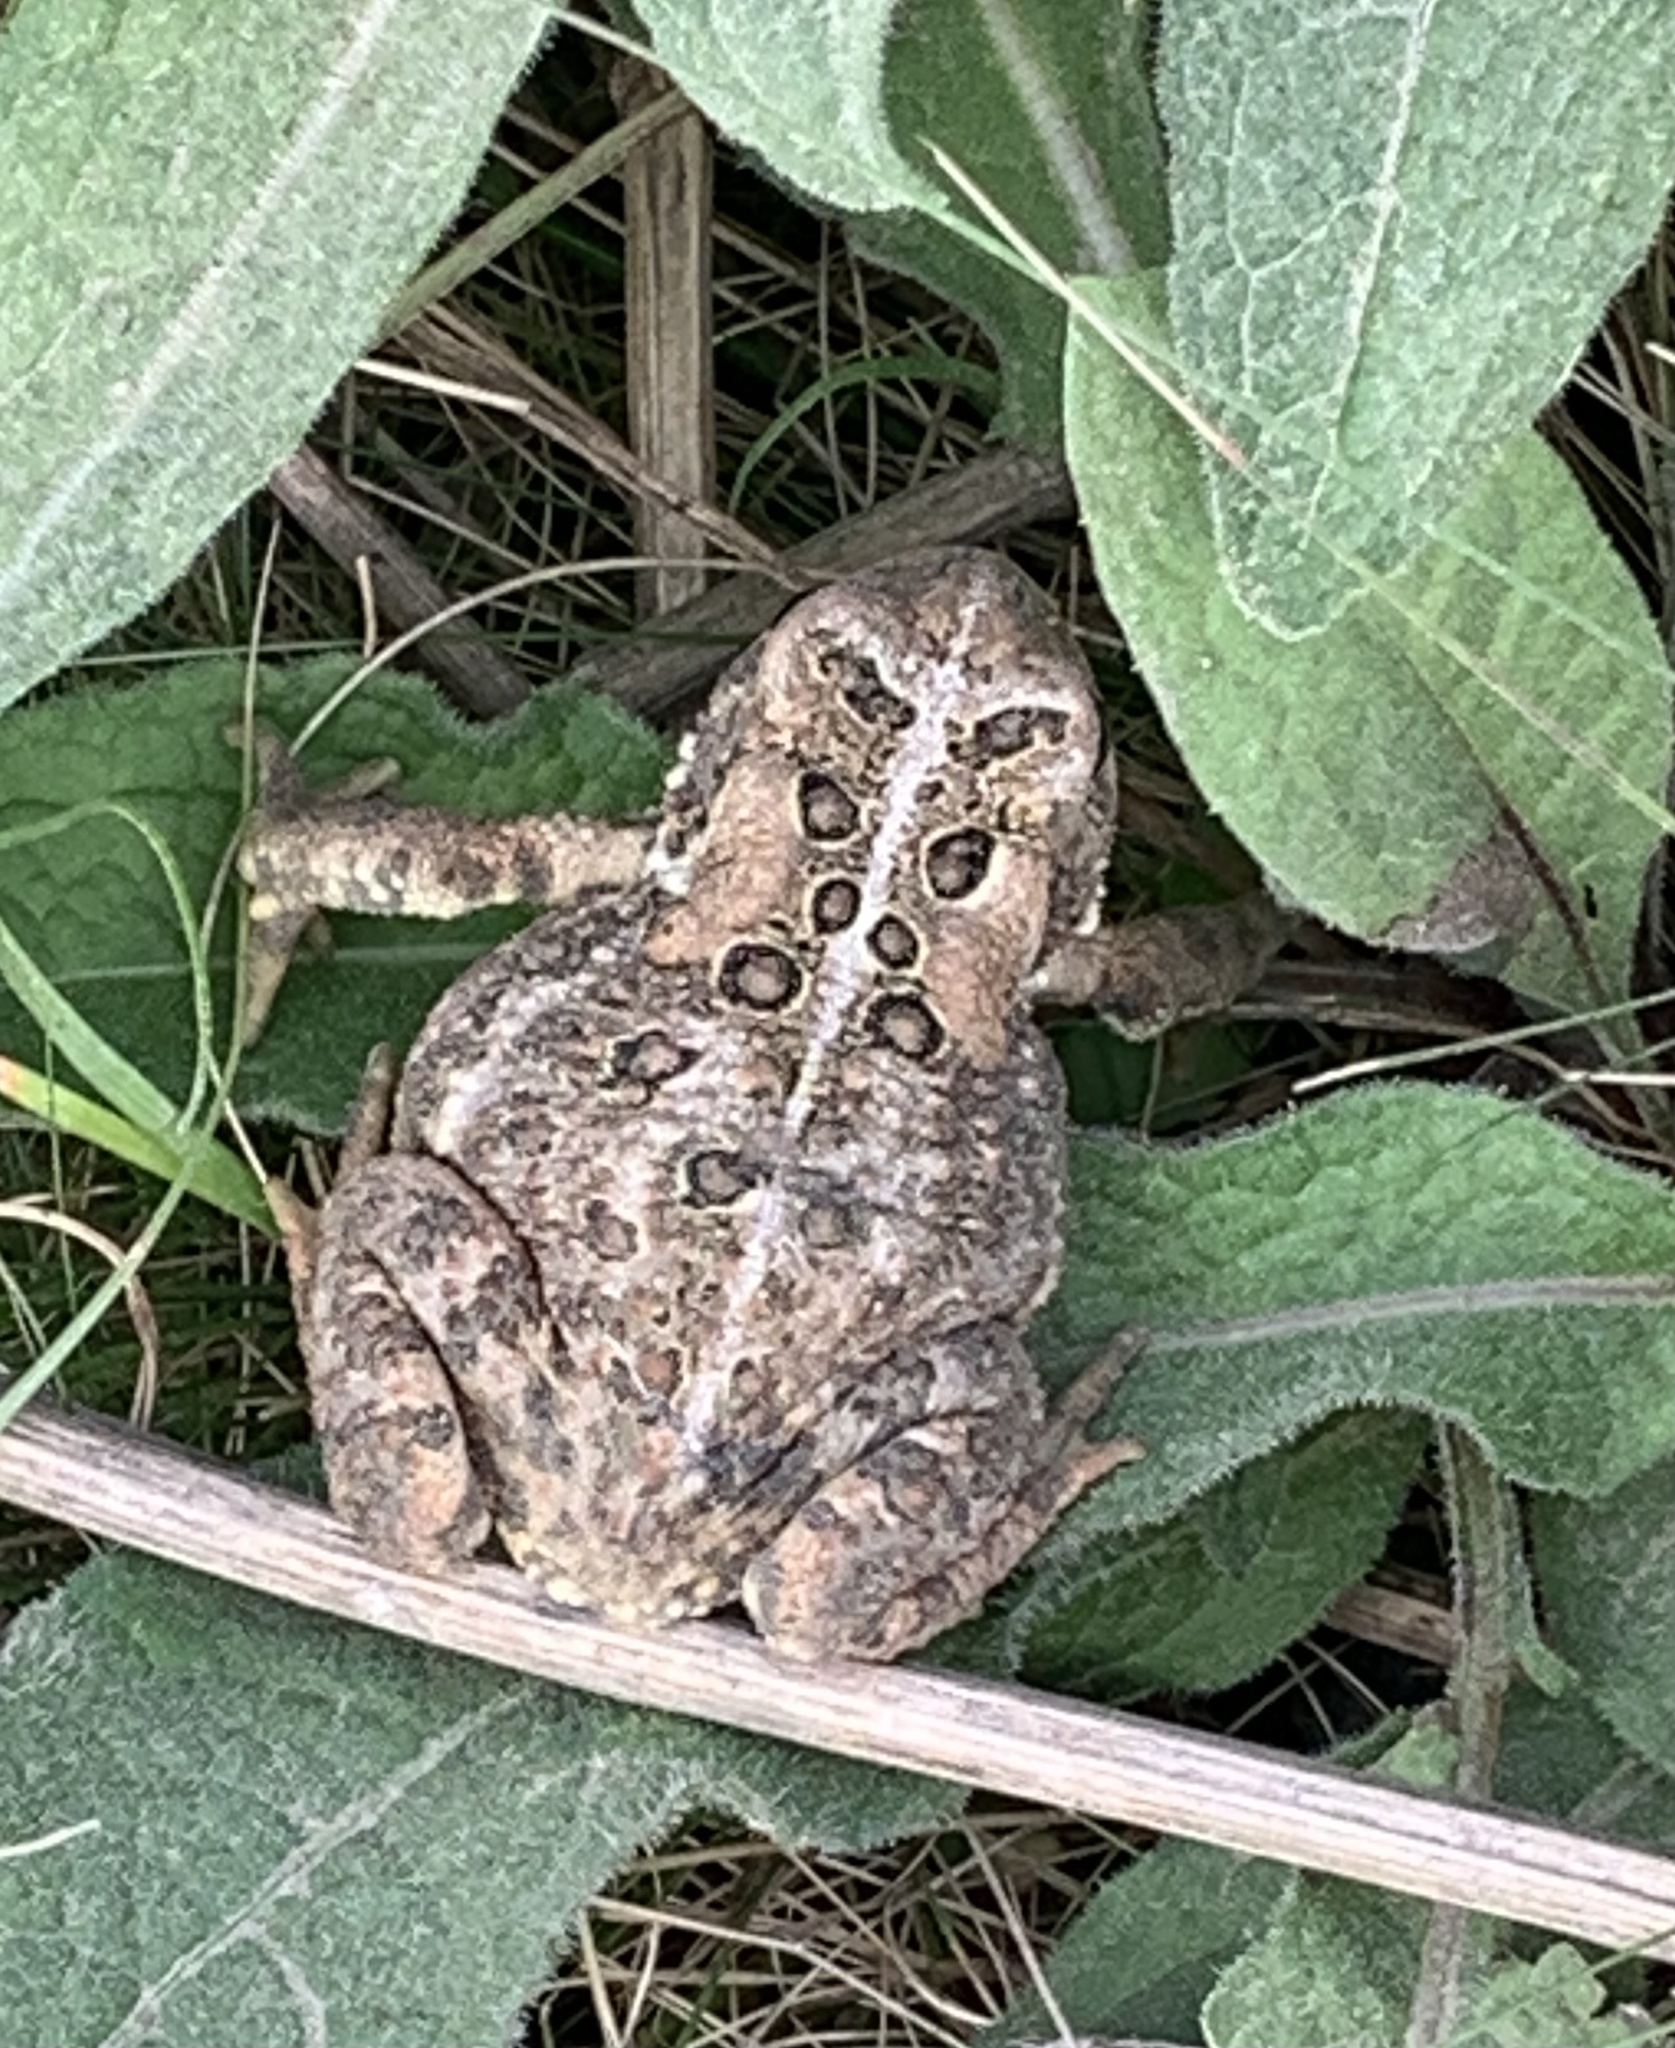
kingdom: Animalia
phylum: Chordata
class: Amphibia
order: Anura
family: Bufonidae
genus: Anaxyrus
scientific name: Anaxyrus americanus
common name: American toad
